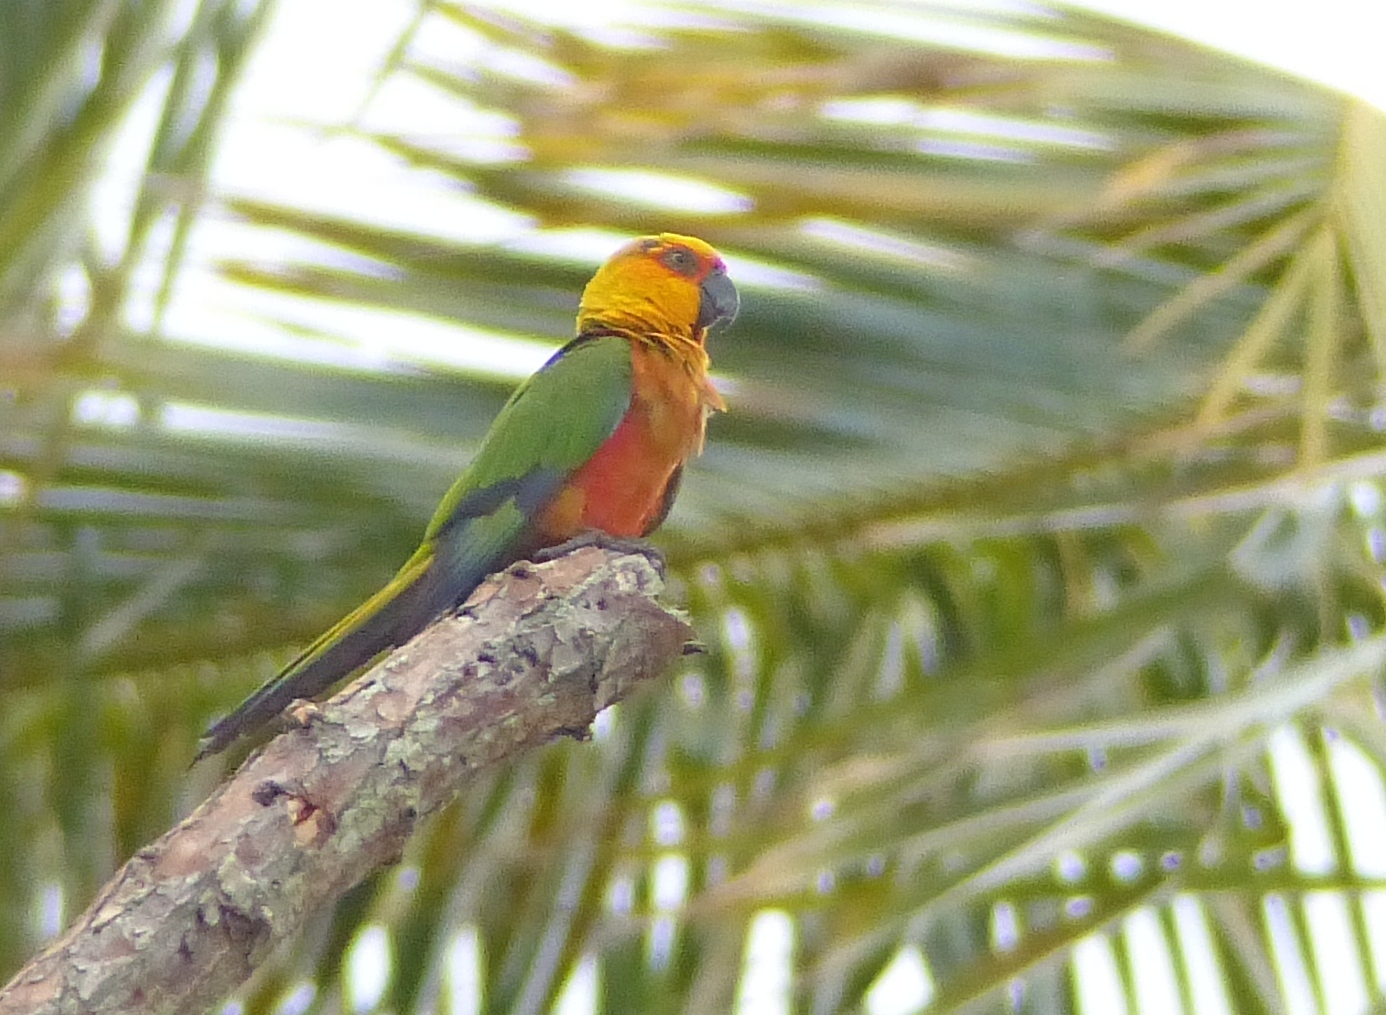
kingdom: Animalia
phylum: Chordata
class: Aves
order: Psittaciformes
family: Psittacidae
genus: Aratinga
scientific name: Aratinga jandaya
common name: Jandaya parakeet
